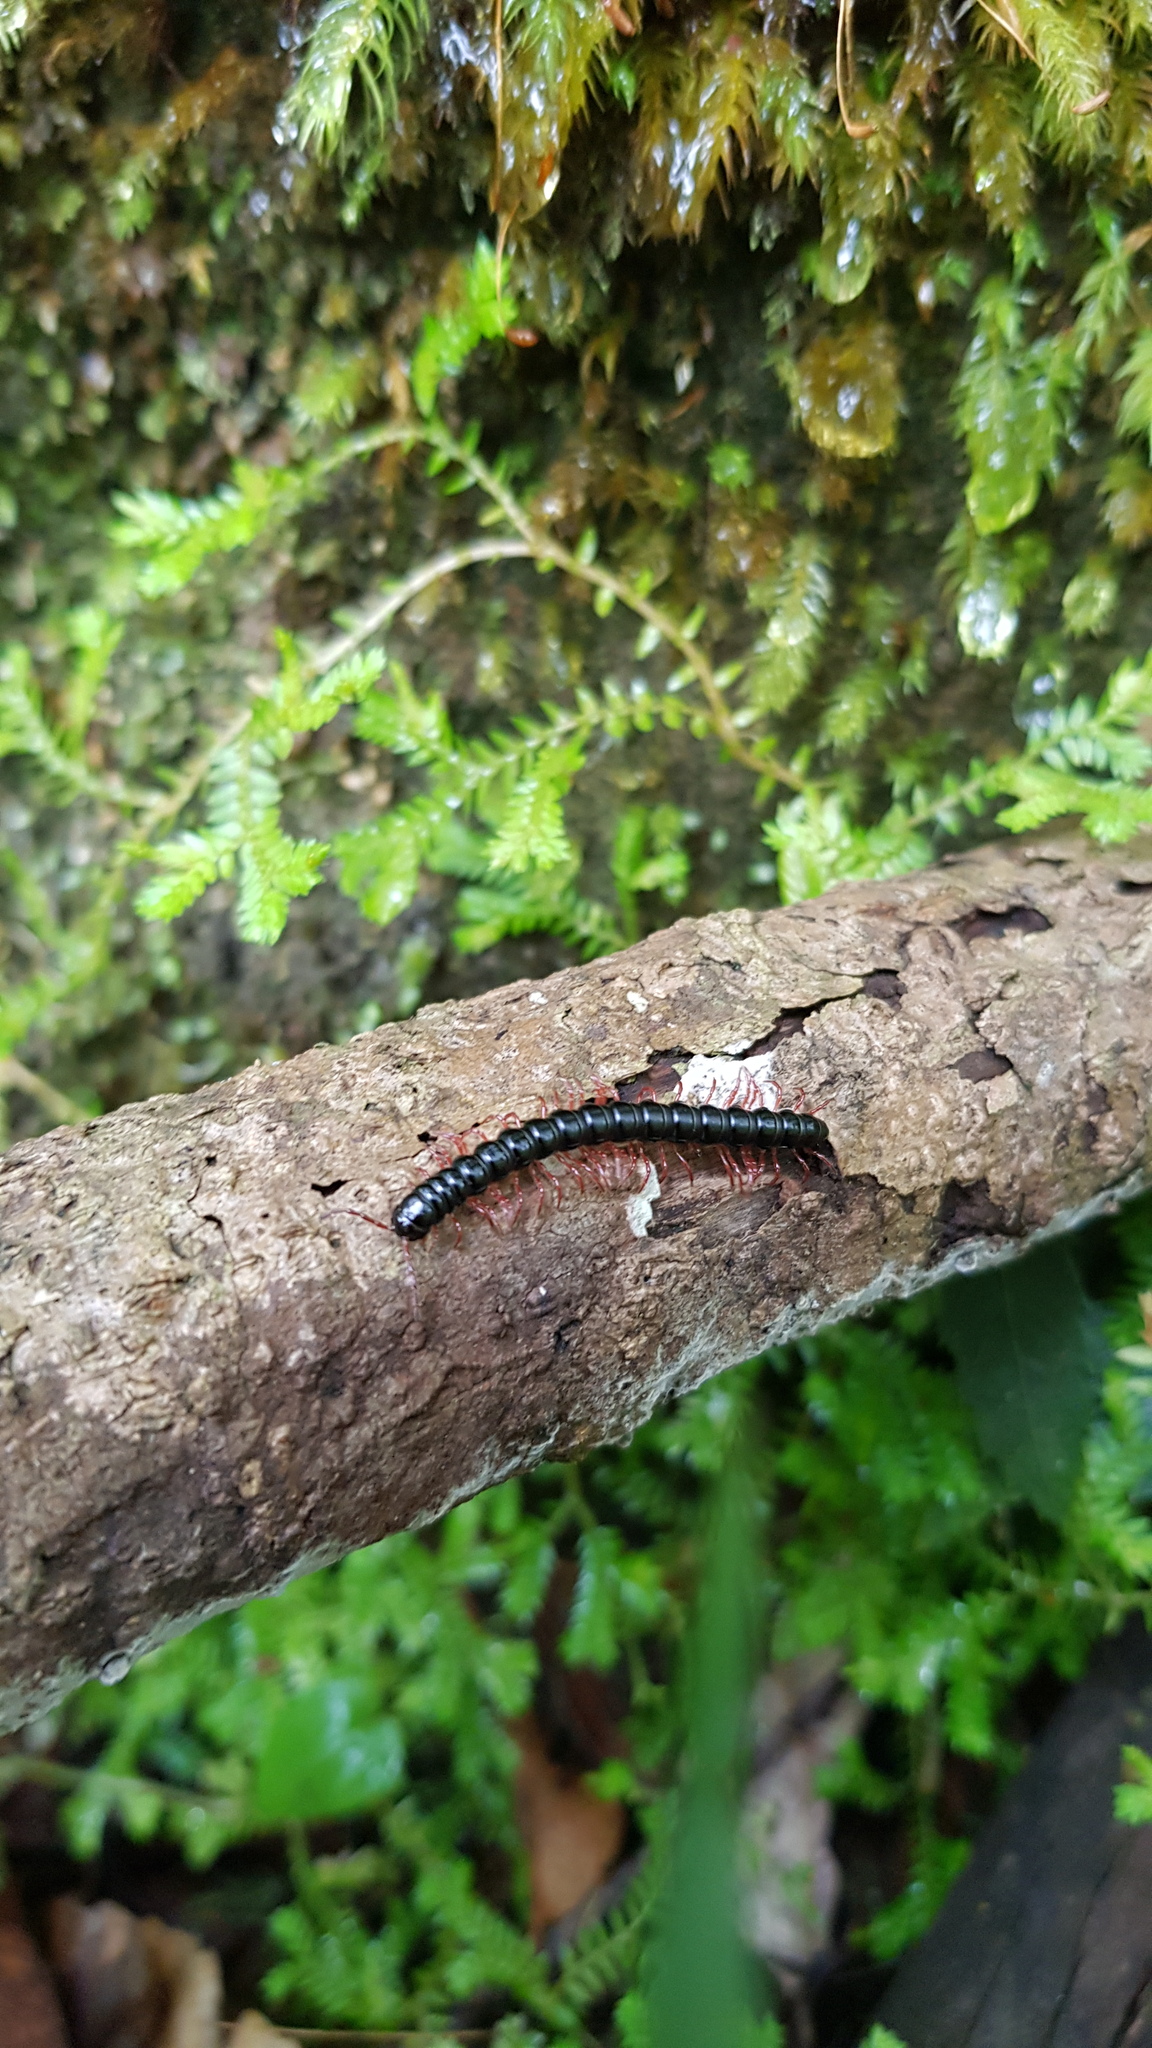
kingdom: Animalia
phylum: Arthropoda
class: Diplopoda
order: Polydesmida
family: Paradoxosomatidae
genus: Heterocladosoma
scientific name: Heterocladosoma
